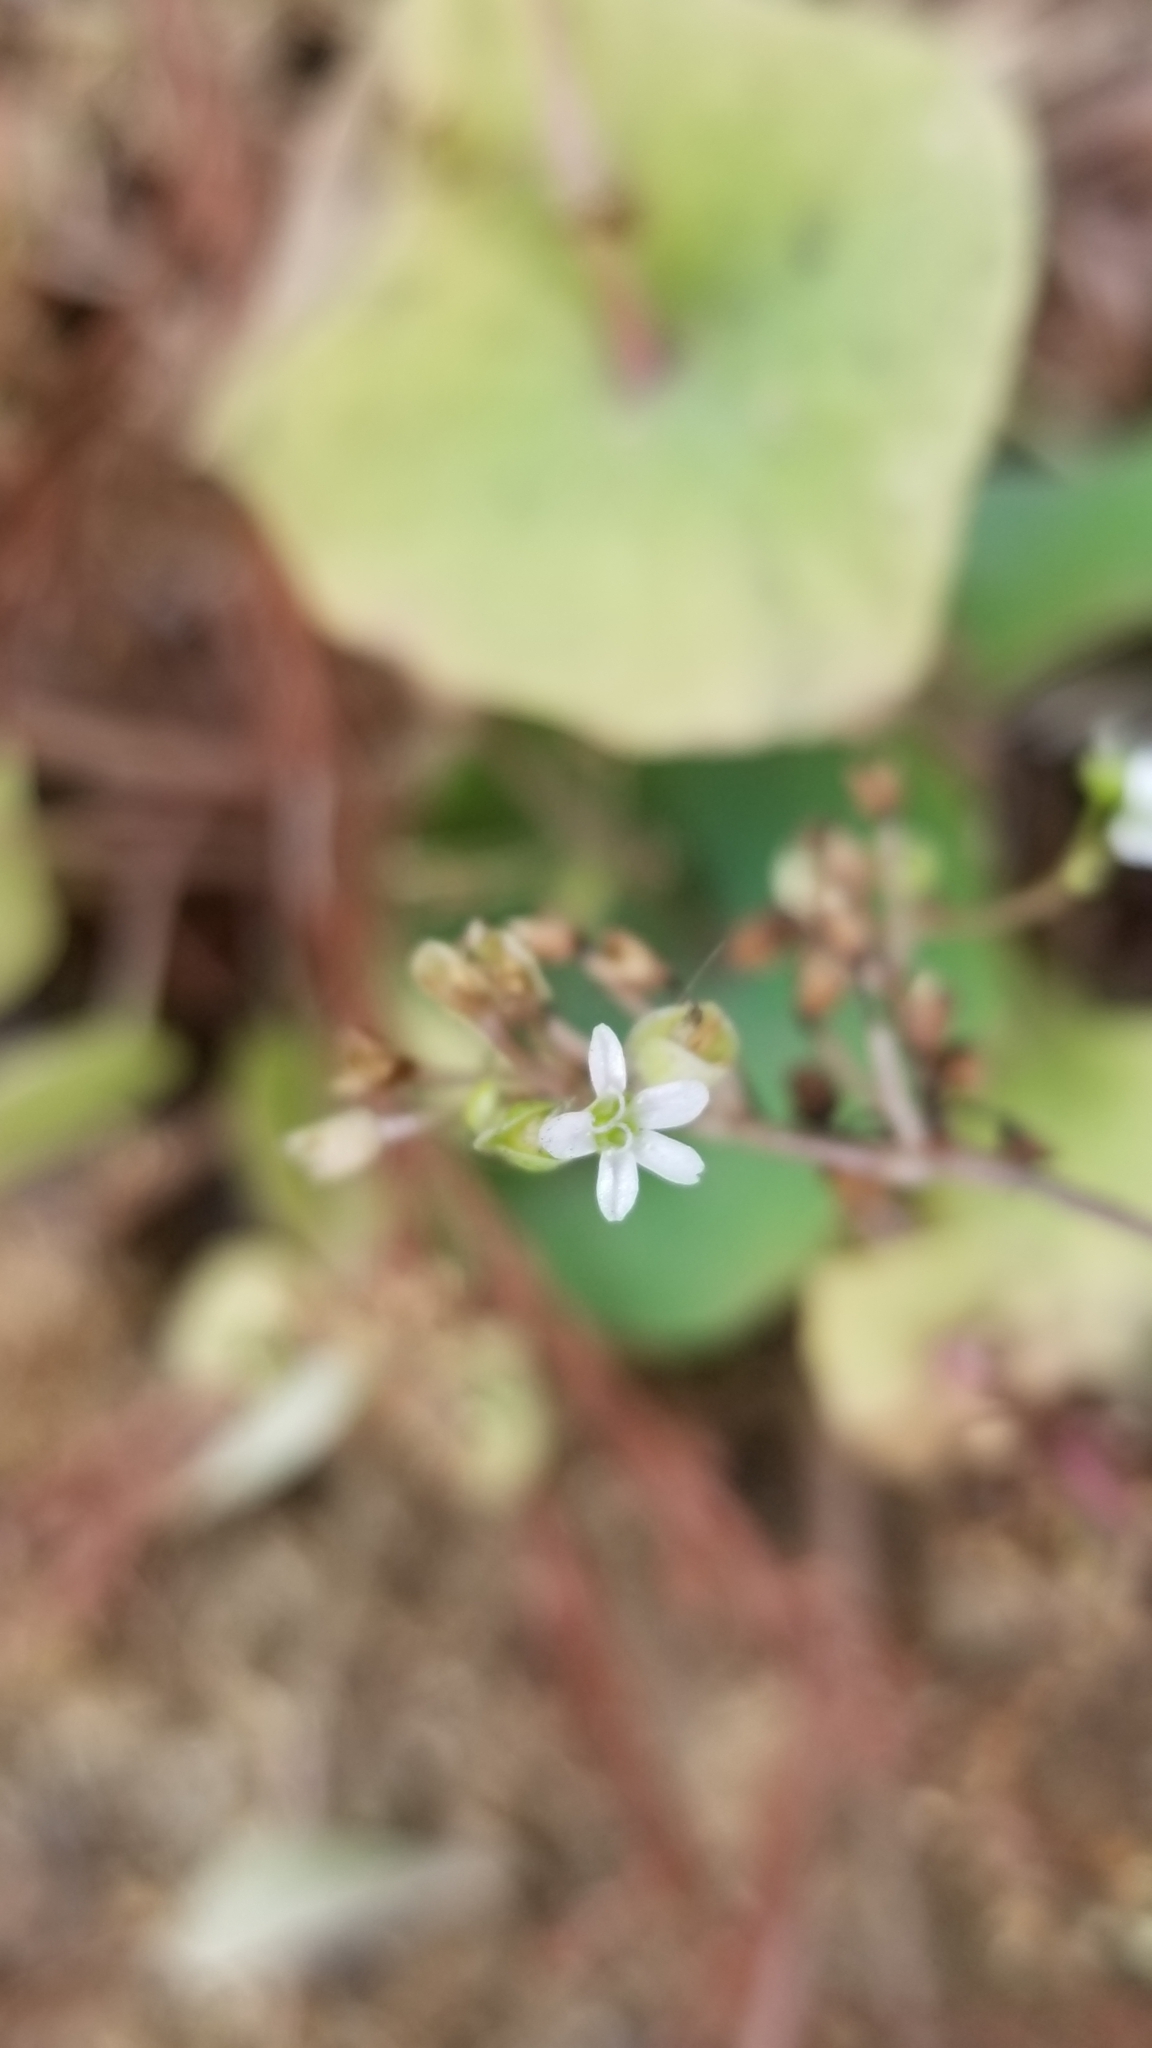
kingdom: Plantae
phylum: Tracheophyta
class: Magnoliopsida
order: Caryophyllales
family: Montiaceae
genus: Claytonia
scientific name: Claytonia perfoliata
